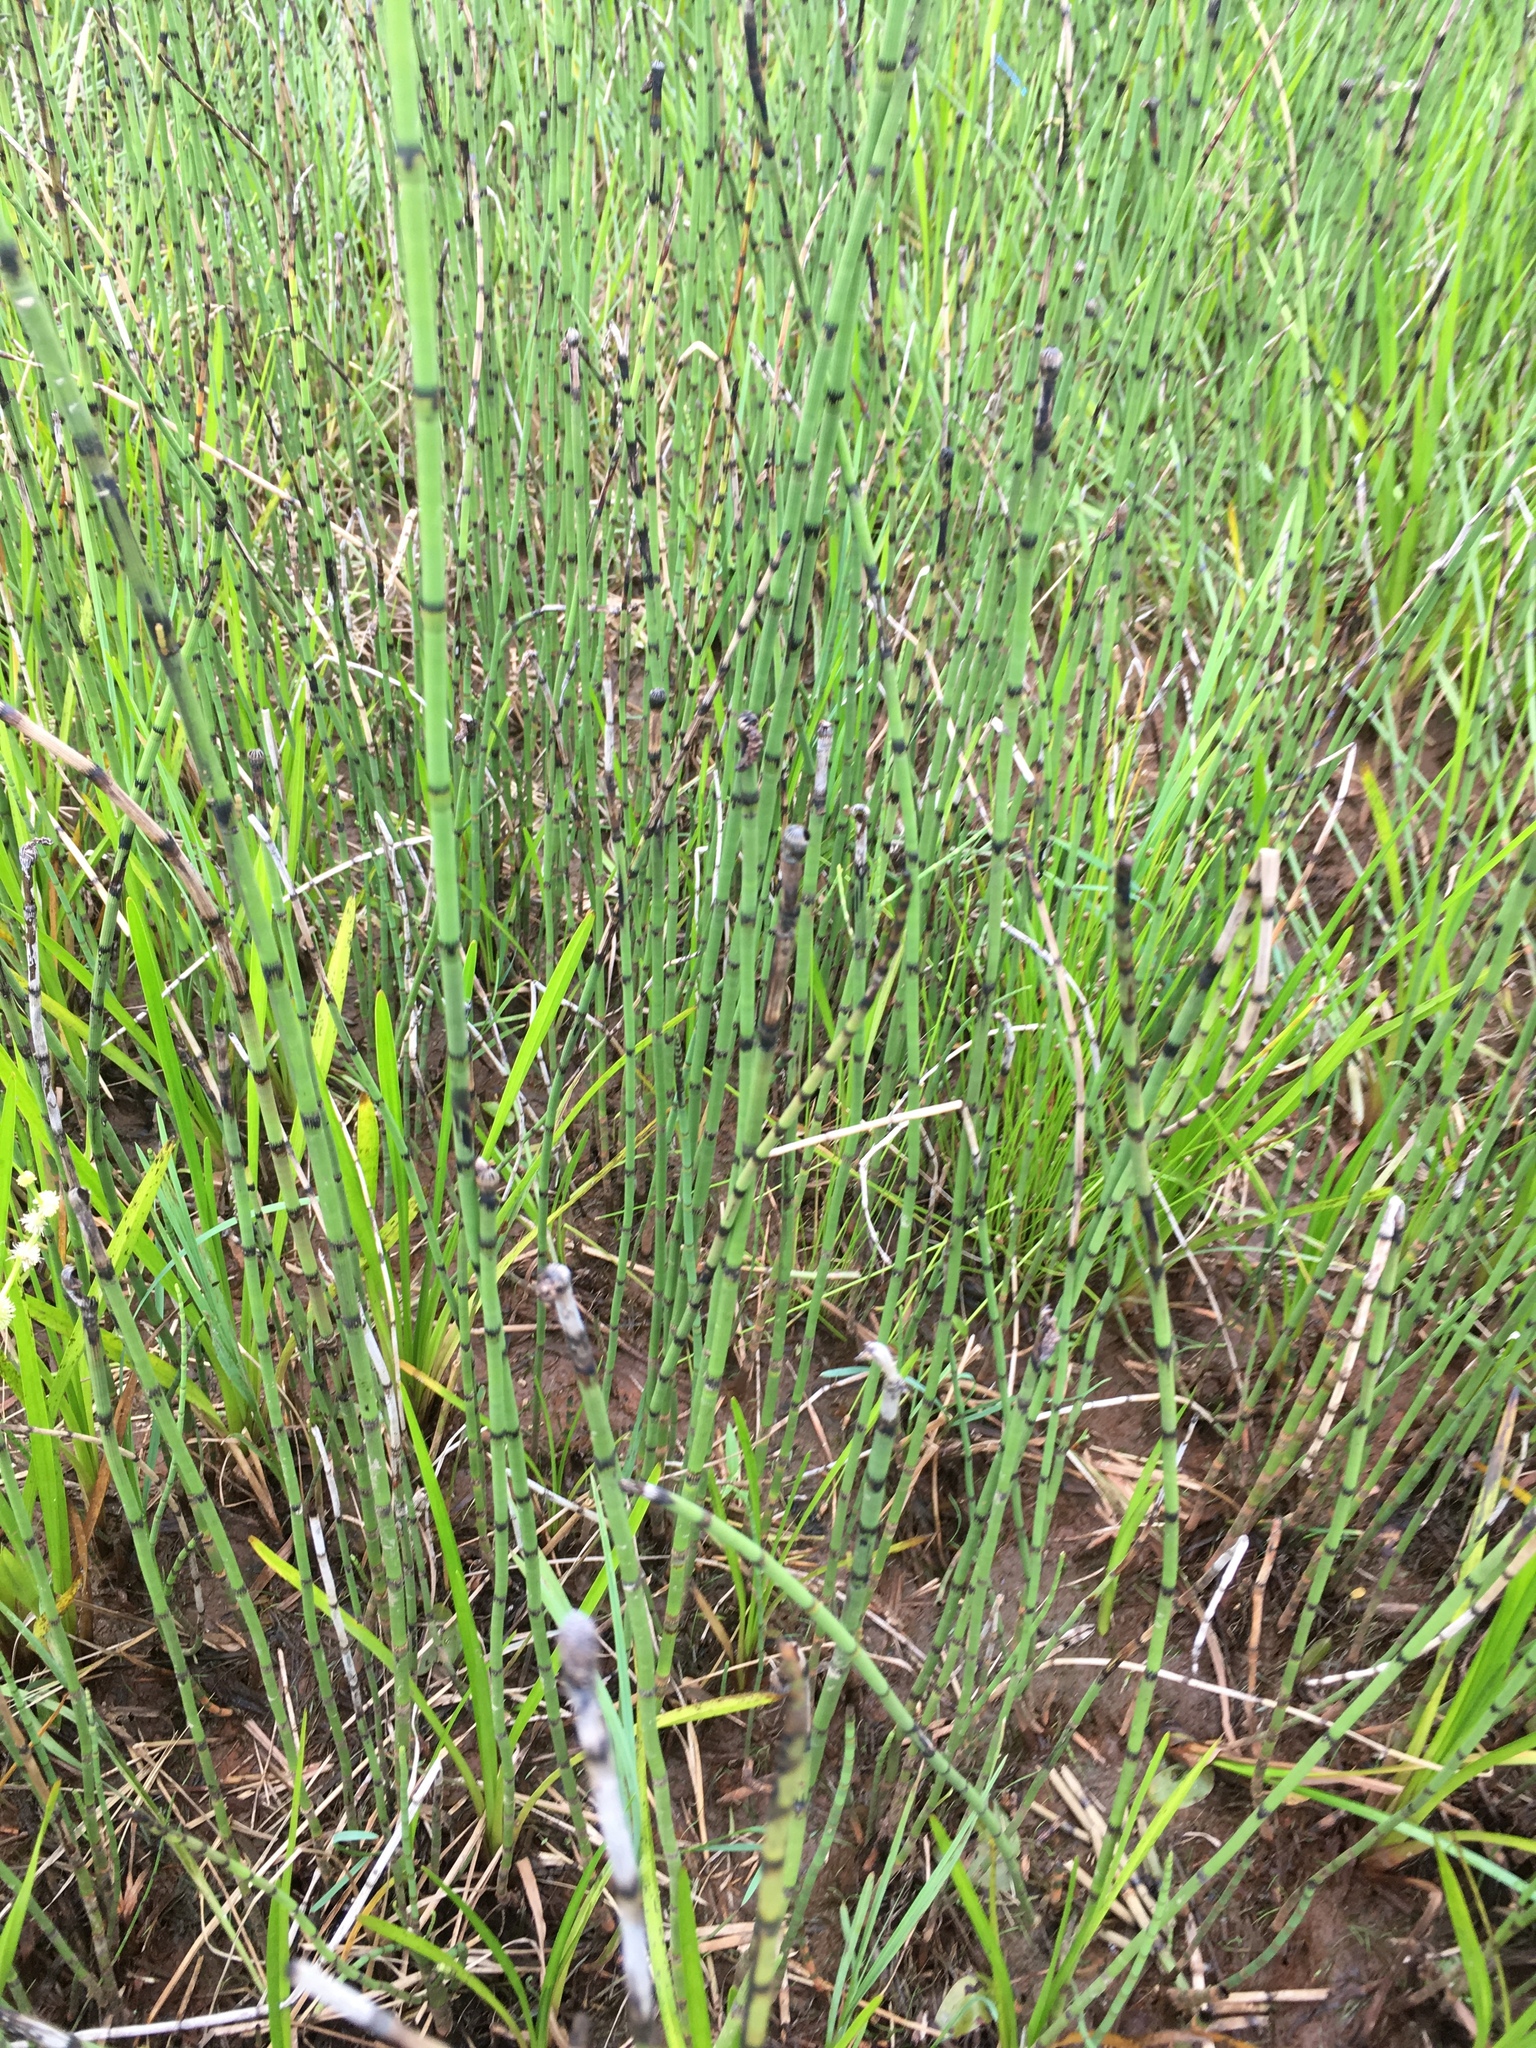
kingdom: Plantae
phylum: Tracheophyta
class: Polypodiopsida
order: Equisetales
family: Equisetaceae
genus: Equisetum
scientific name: Equisetum fluviatile
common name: Water horsetail
